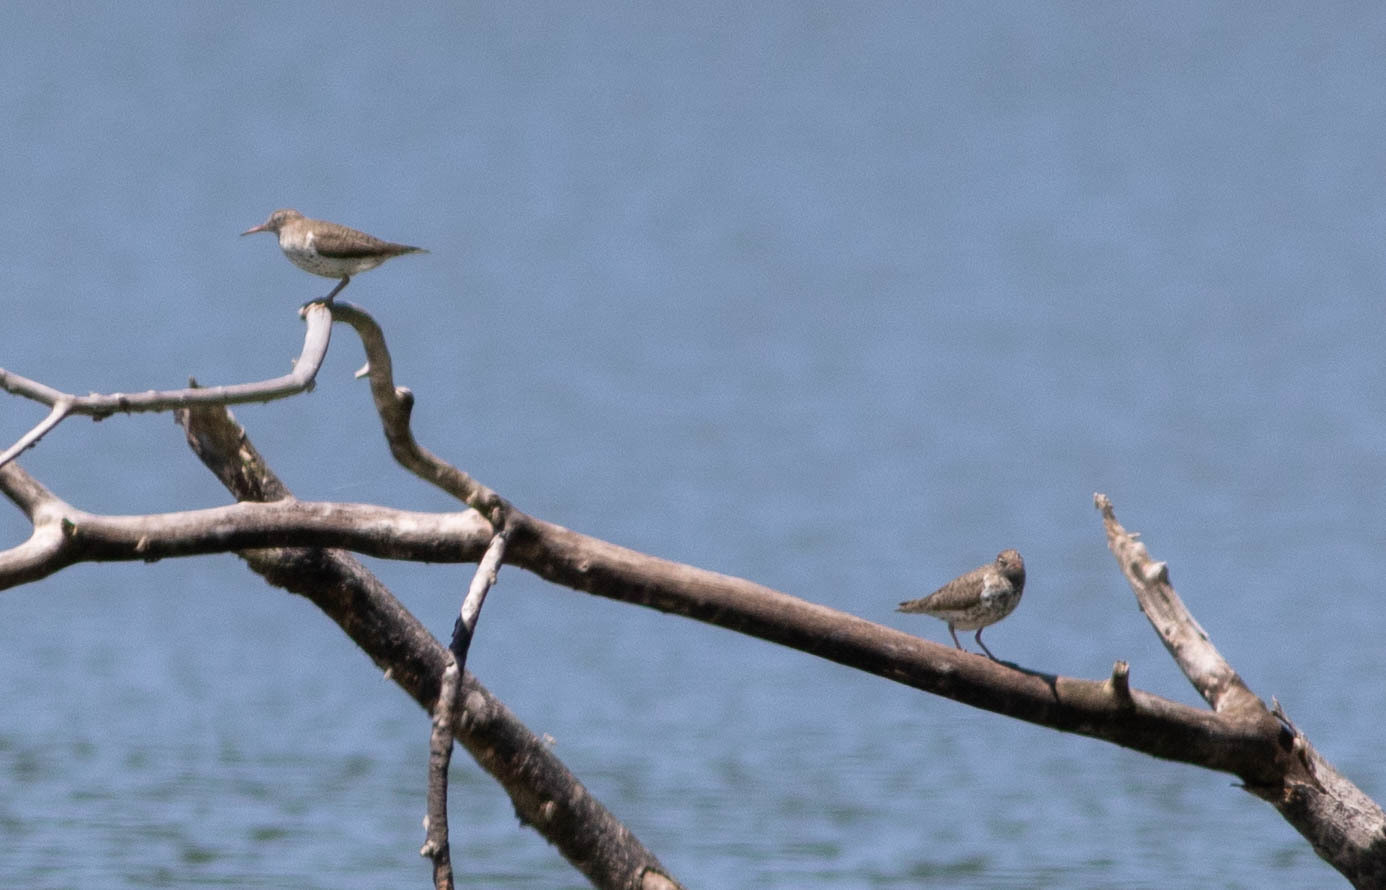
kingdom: Animalia
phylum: Chordata
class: Aves
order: Charadriiformes
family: Scolopacidae
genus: Actitis
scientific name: Actitis macularius
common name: Spotted sandpiper
